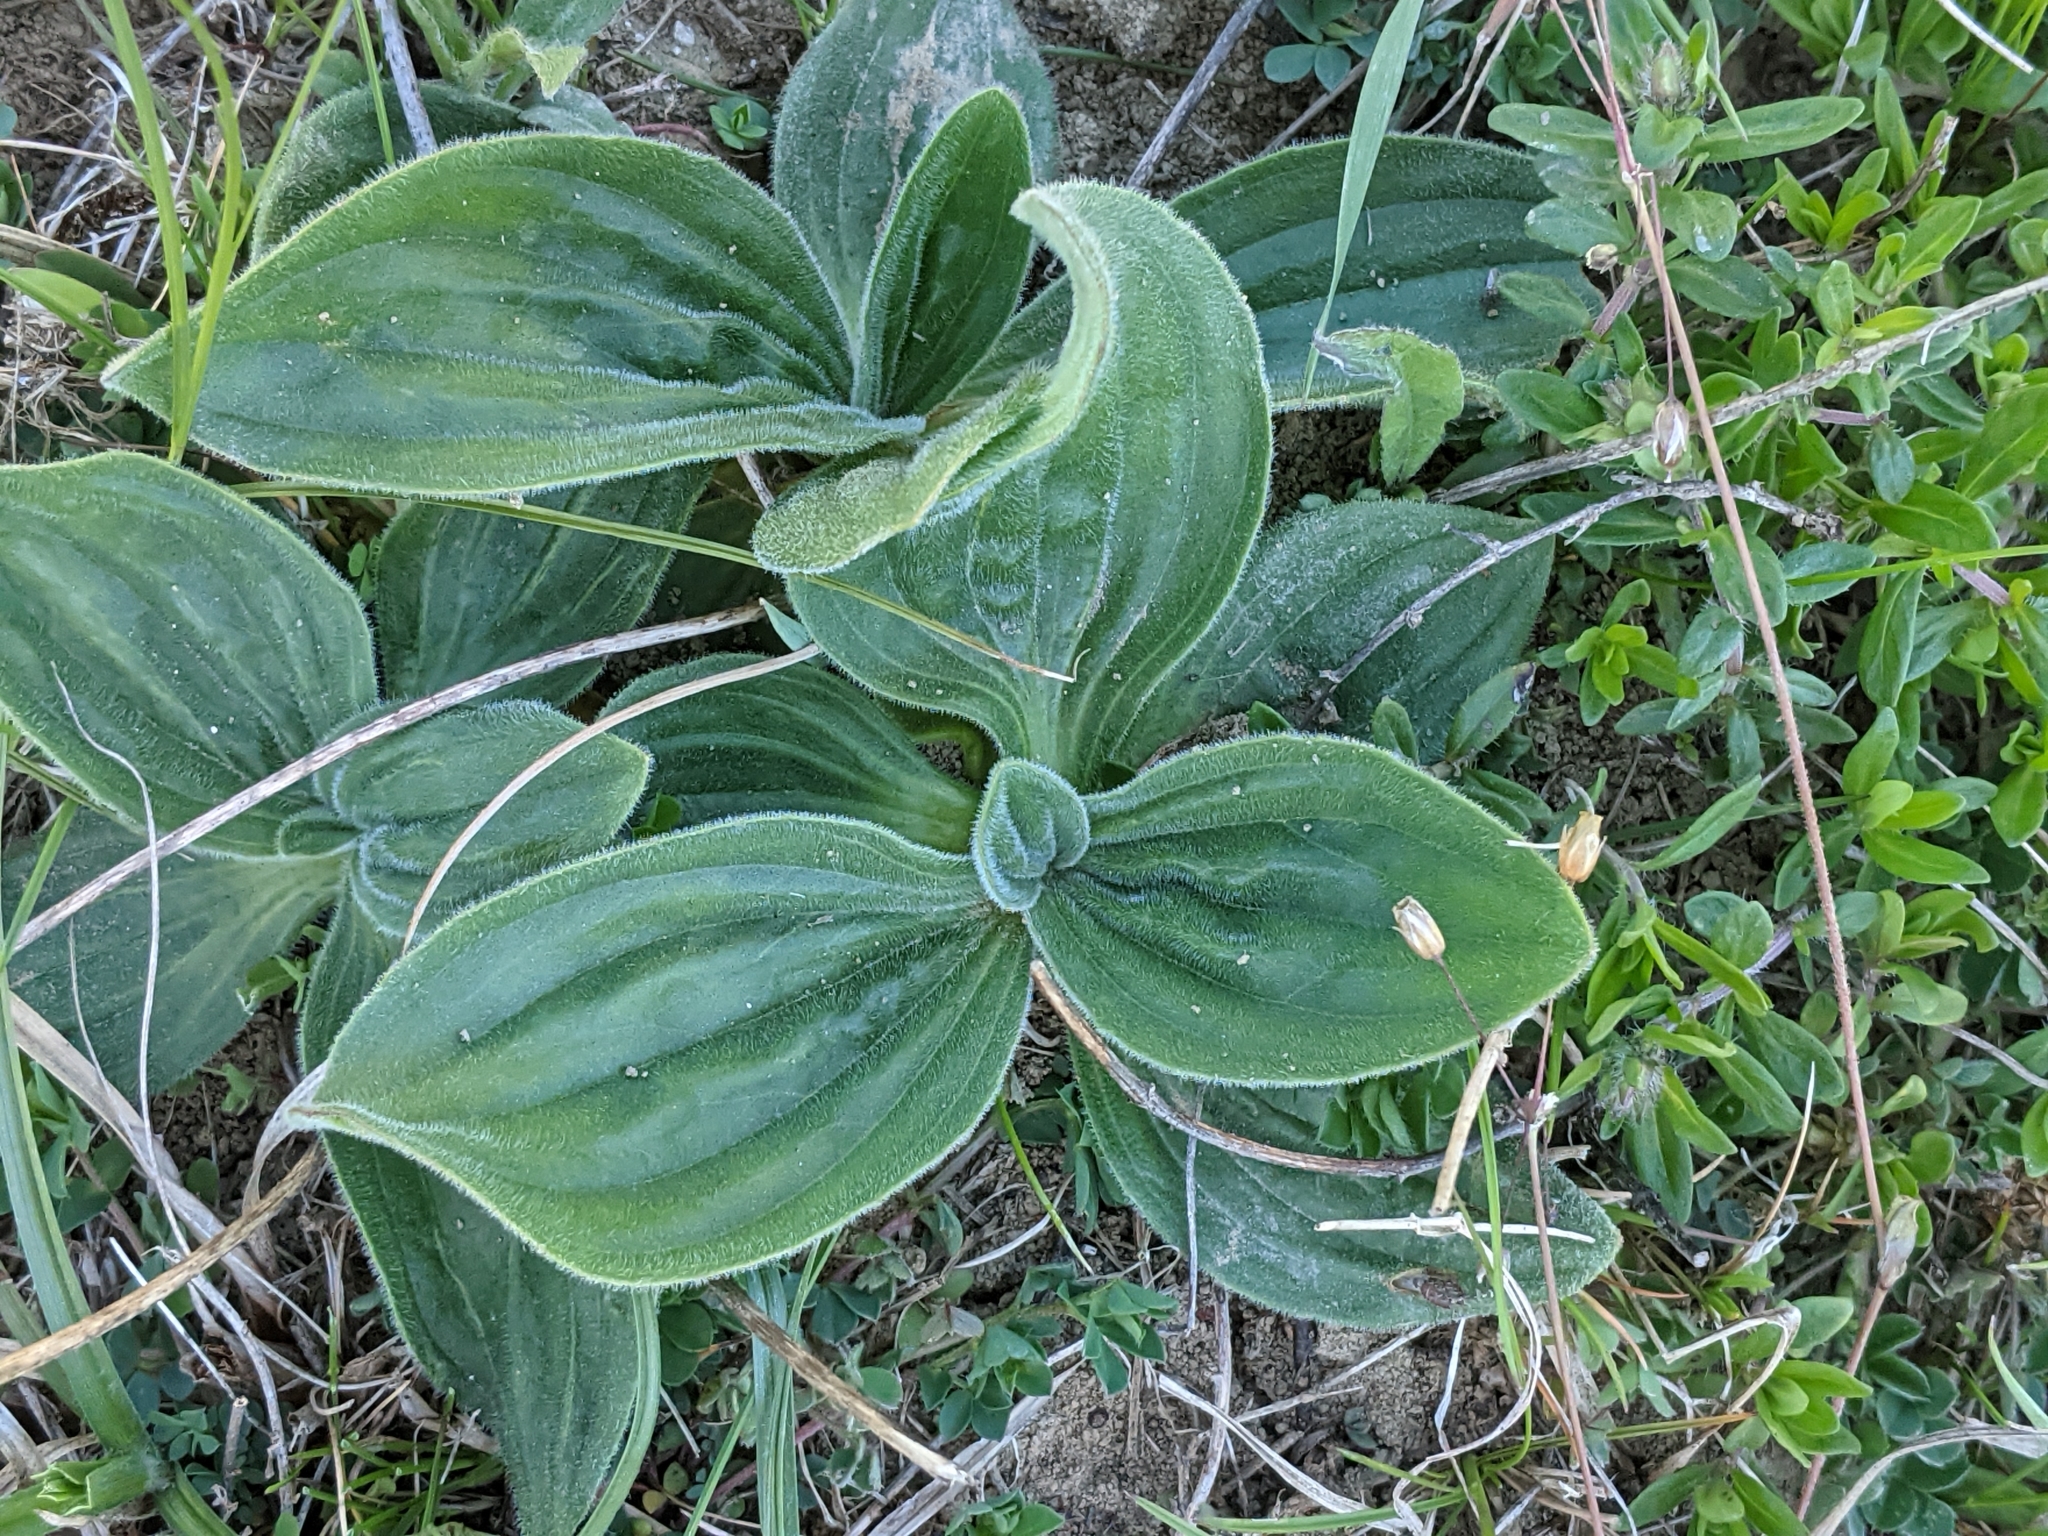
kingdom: Plantae
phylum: Tracheophyta
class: Magnoliopsida
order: Lamiales
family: Plantaginaceae
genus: Plantago
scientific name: Plantago media
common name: Hoary plantain
